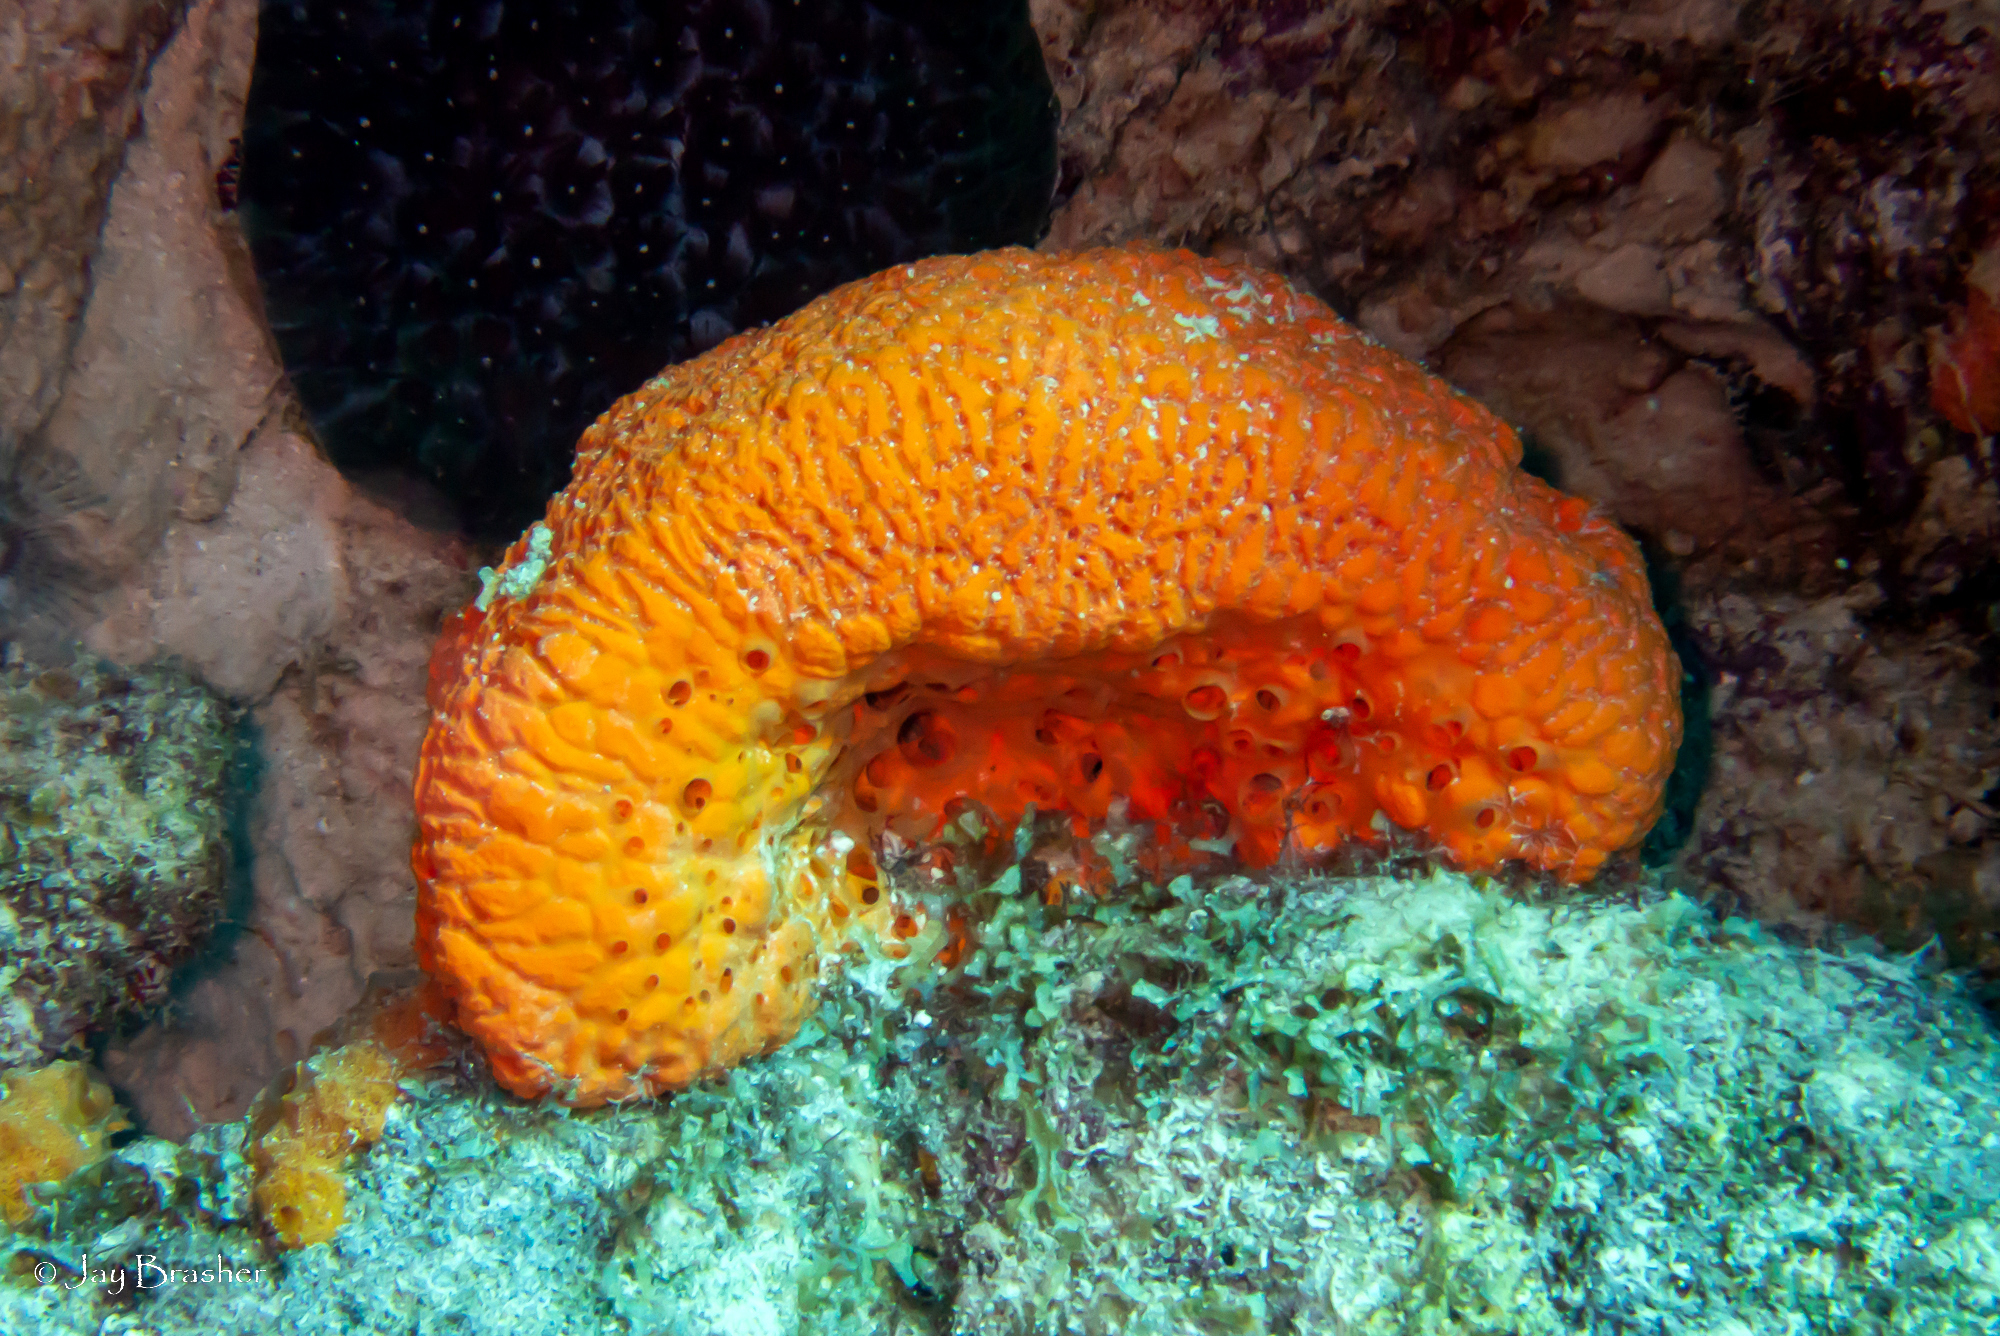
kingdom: Animalia
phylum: Porifera
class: Demospongiae
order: Agelasida
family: Agelasidae
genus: Agelas
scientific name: Agelas clathrodes
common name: Orange elephant ear sponge
